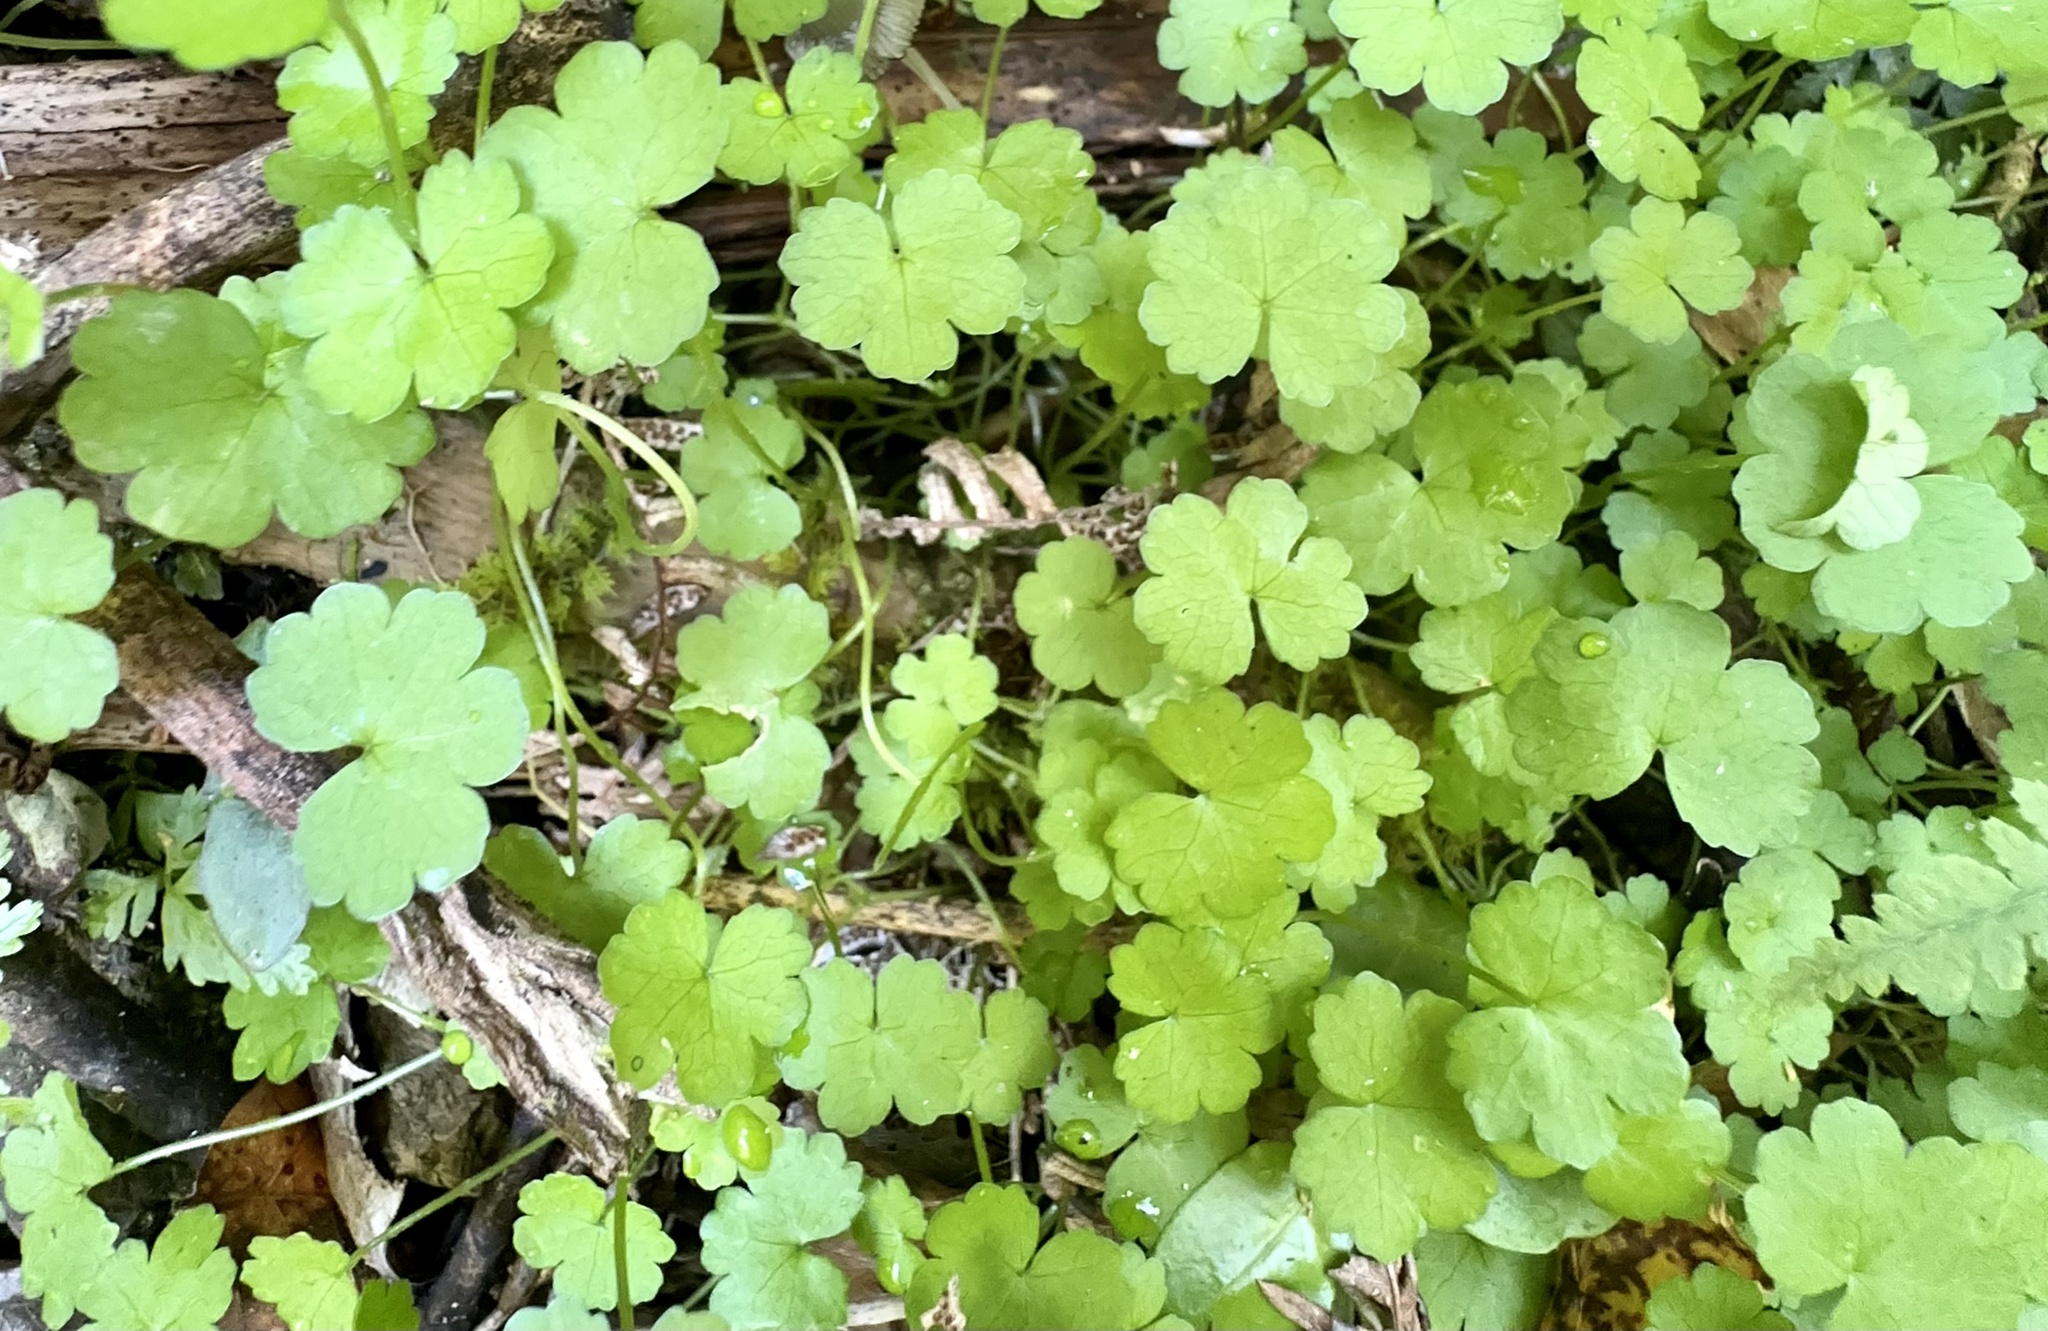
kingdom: Plantae
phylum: Tracheophyta
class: Magnoliopsida
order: Apiales
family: Araliaceae
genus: Hydrocotyle
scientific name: Hydrocotyle heteromeria
